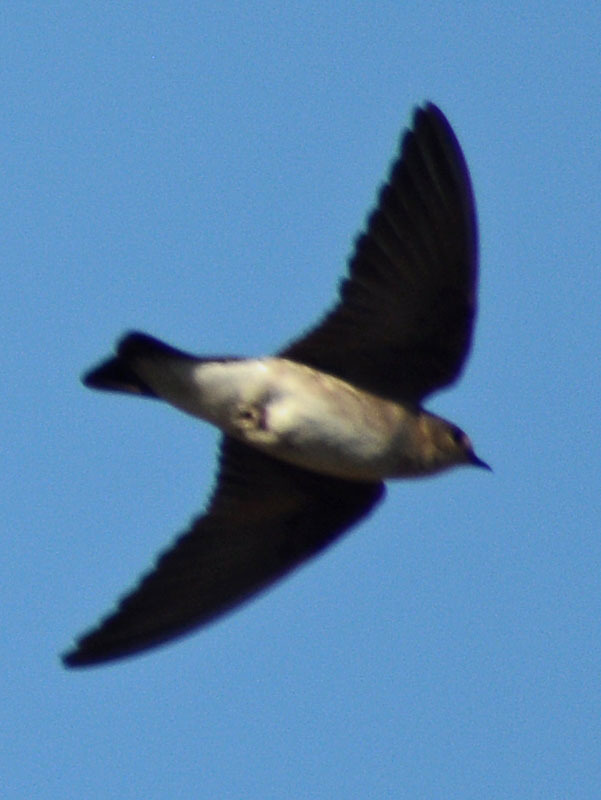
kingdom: Animalia
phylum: Chordata
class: Aves
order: Passeriformes
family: Hirundinidae
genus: Stelgidopteryx
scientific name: Stelgidopteryx serripennis
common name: Northern rough-winged swallow
